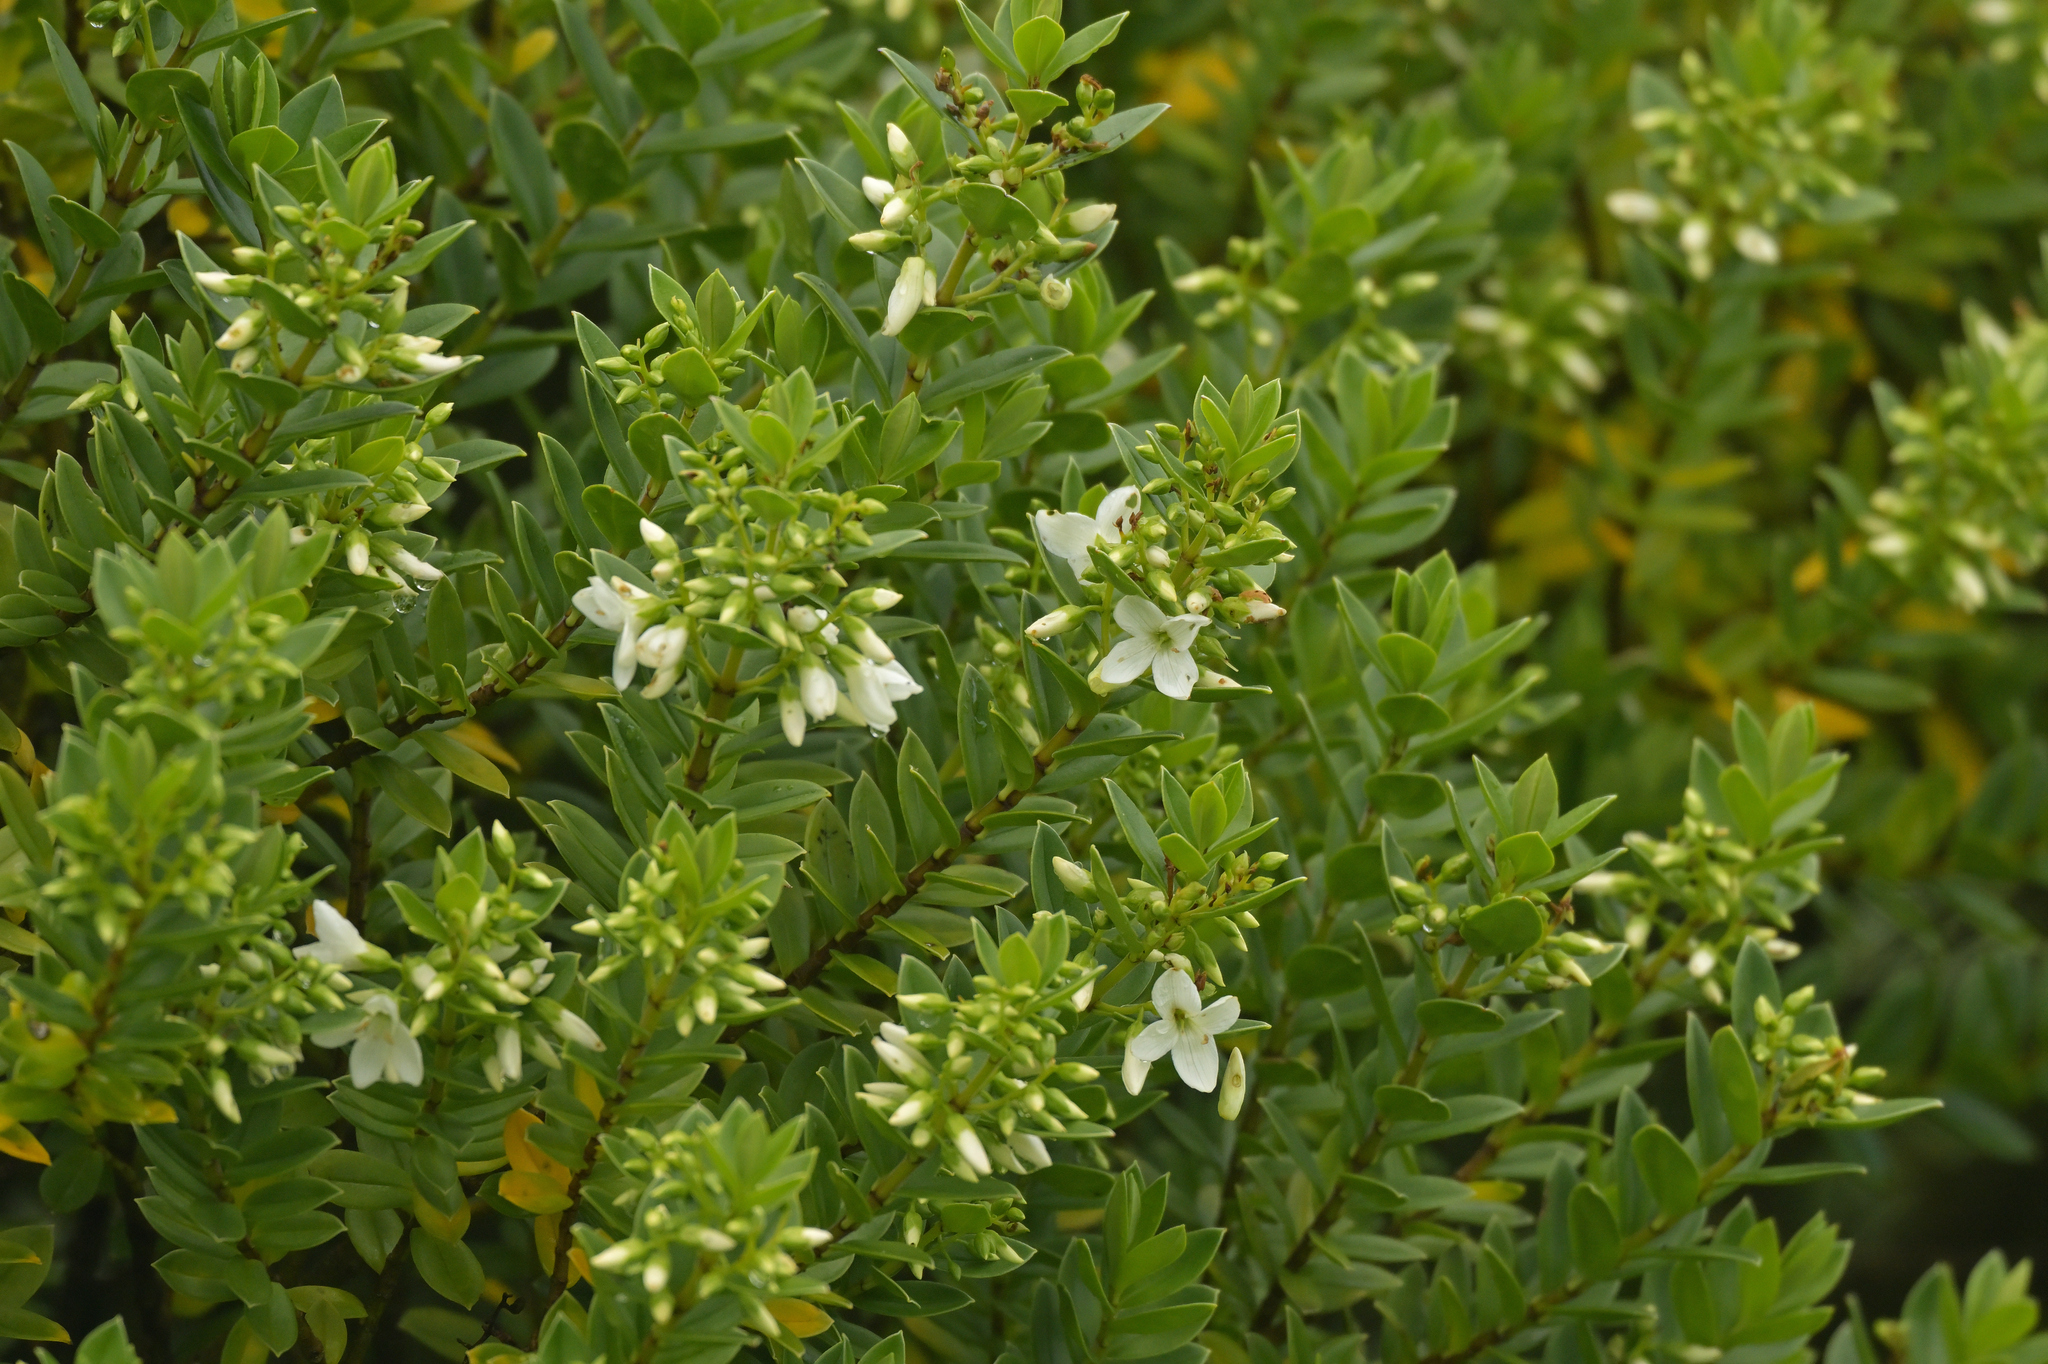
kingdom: Plantae
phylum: Tracheophyta
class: Magnoliopsida
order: Lamiales
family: Plantaginaceae
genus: Veronica
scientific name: Veronica elliptica
